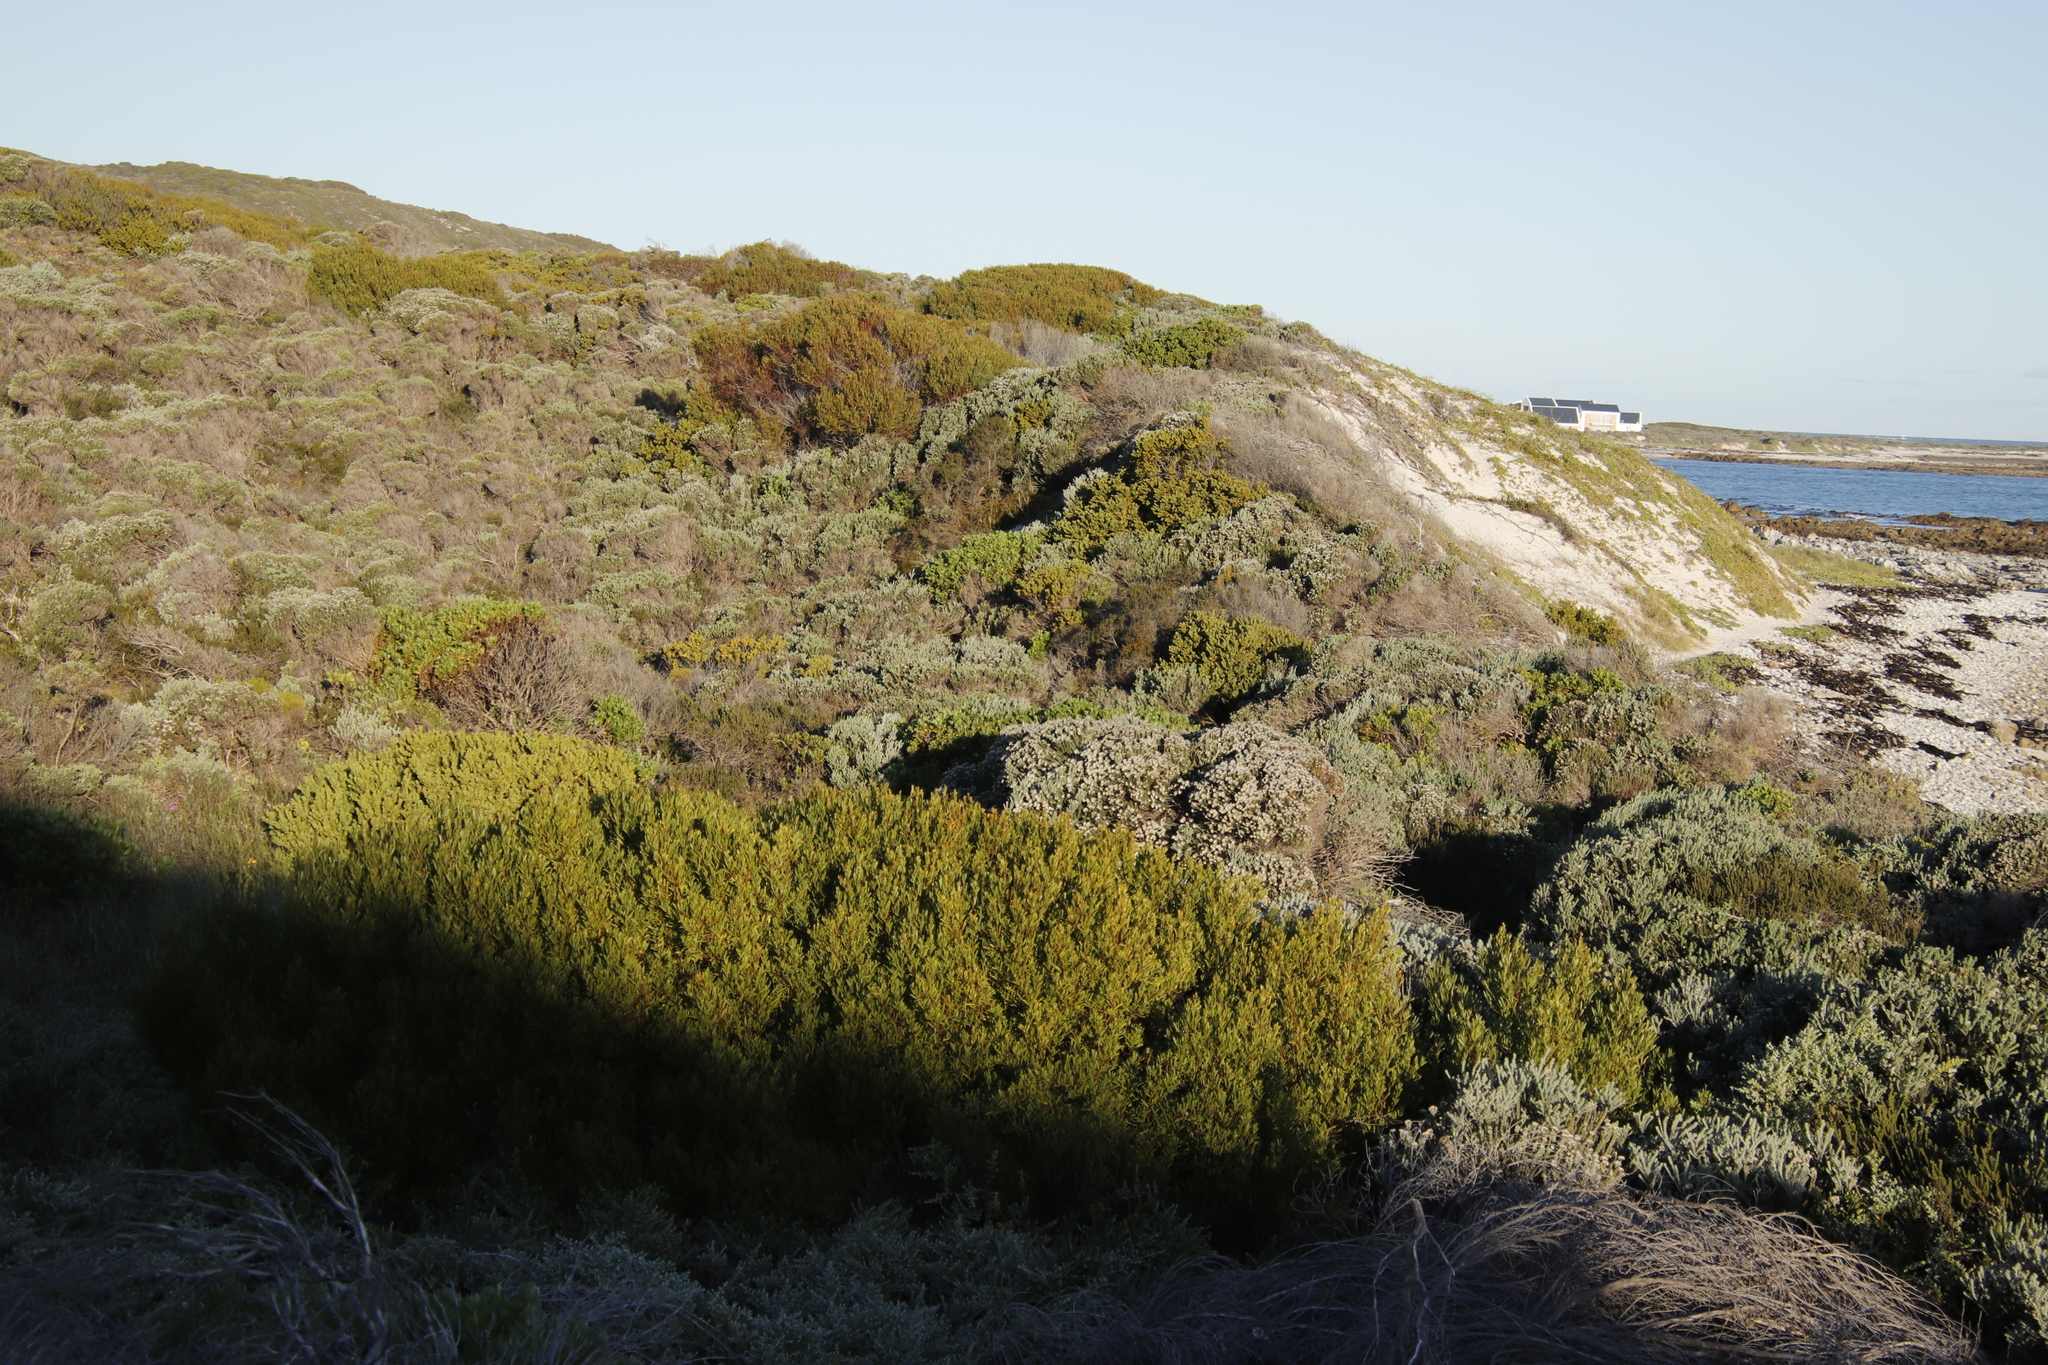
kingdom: Plantae
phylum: Tracheophyta
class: Magnoliopsida
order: Fabales
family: Fabaceae
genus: Acacia
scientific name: Acacia cyclops
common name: Coastal wattle
